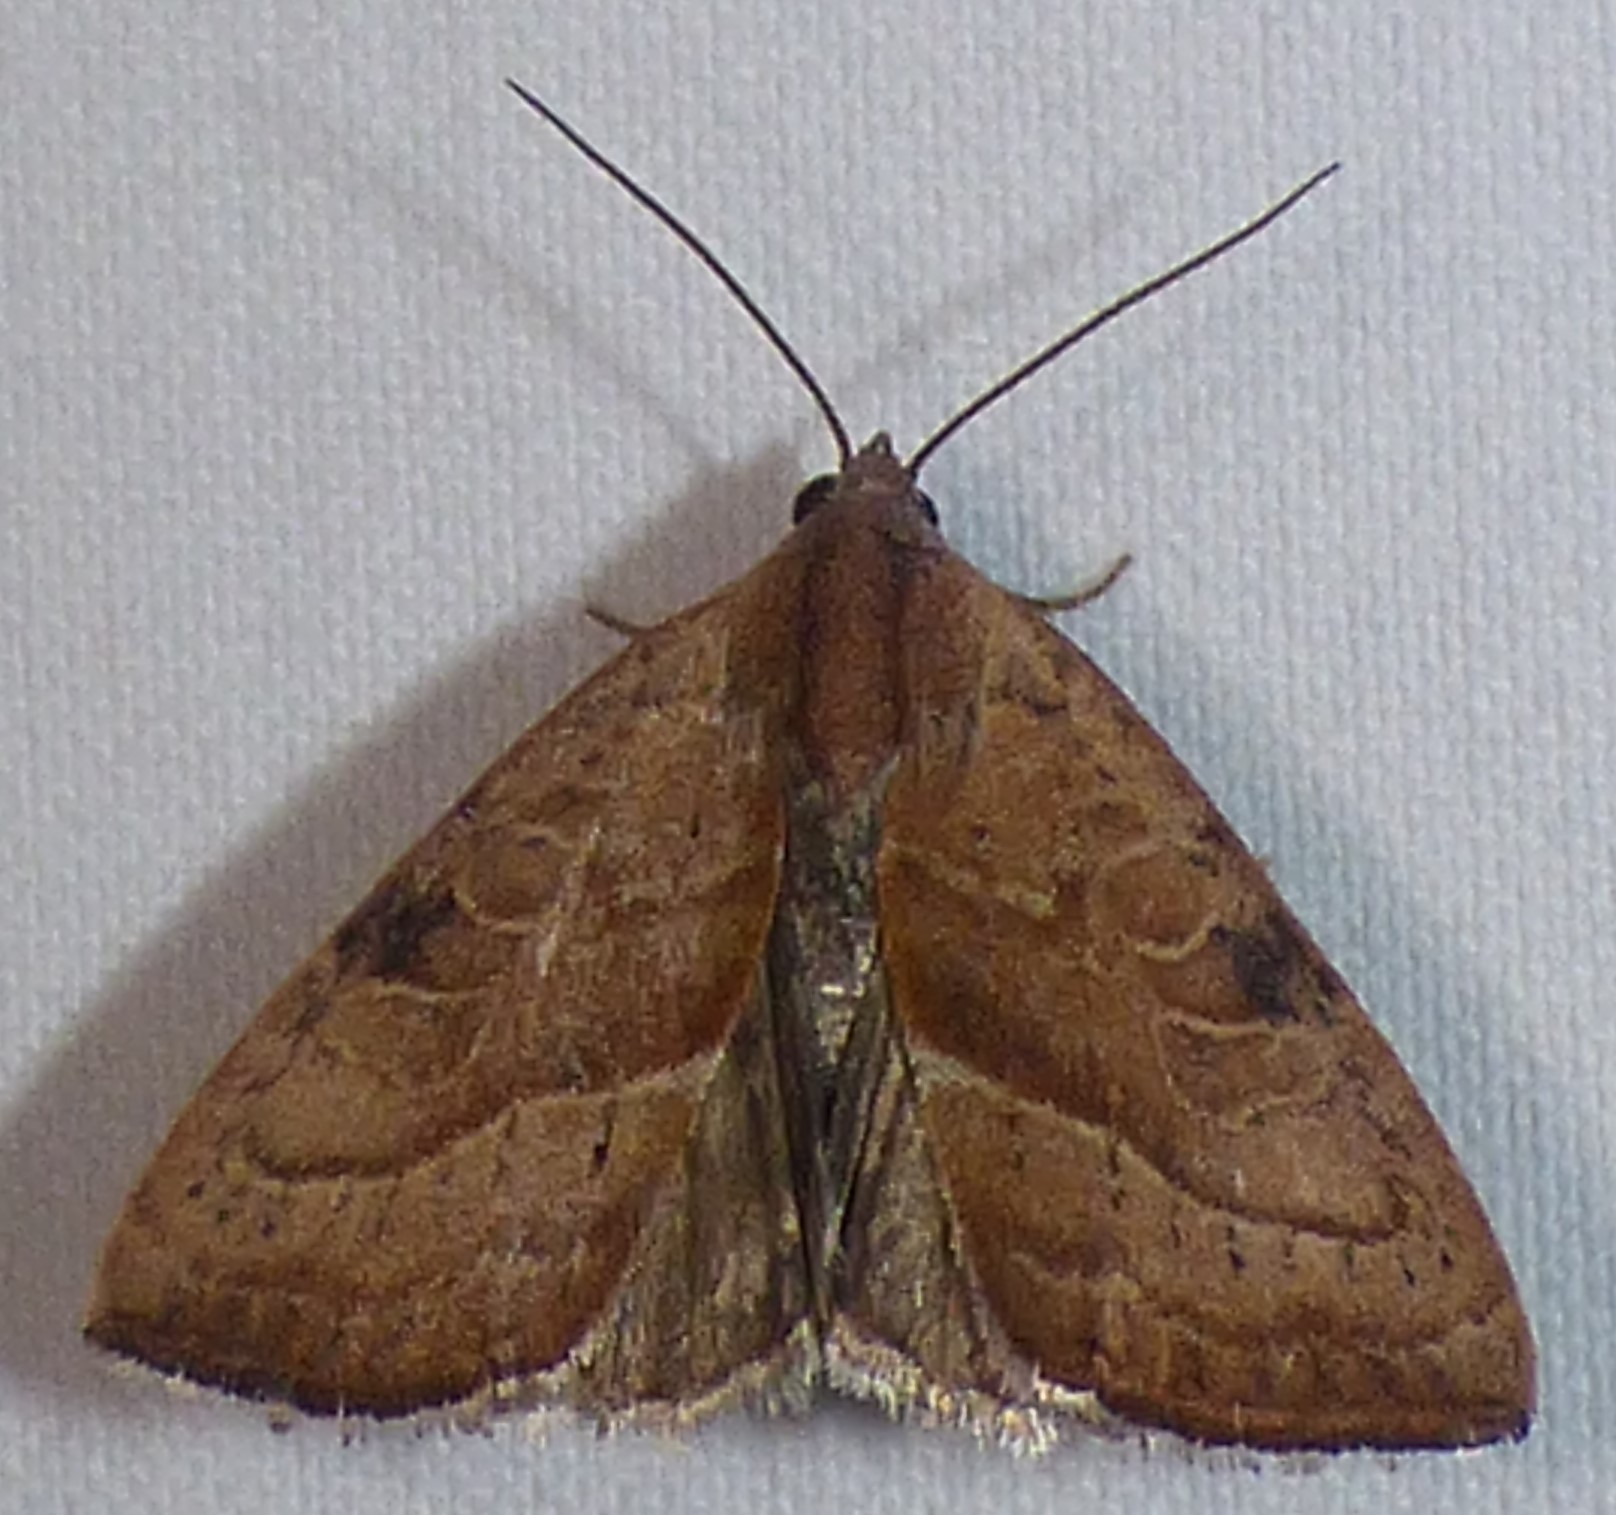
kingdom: Animalia
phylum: Arthropoda
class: Insecta
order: Lepidoptera
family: Noctuidae
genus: Galgula
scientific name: Galgula partita
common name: Wedgeling
